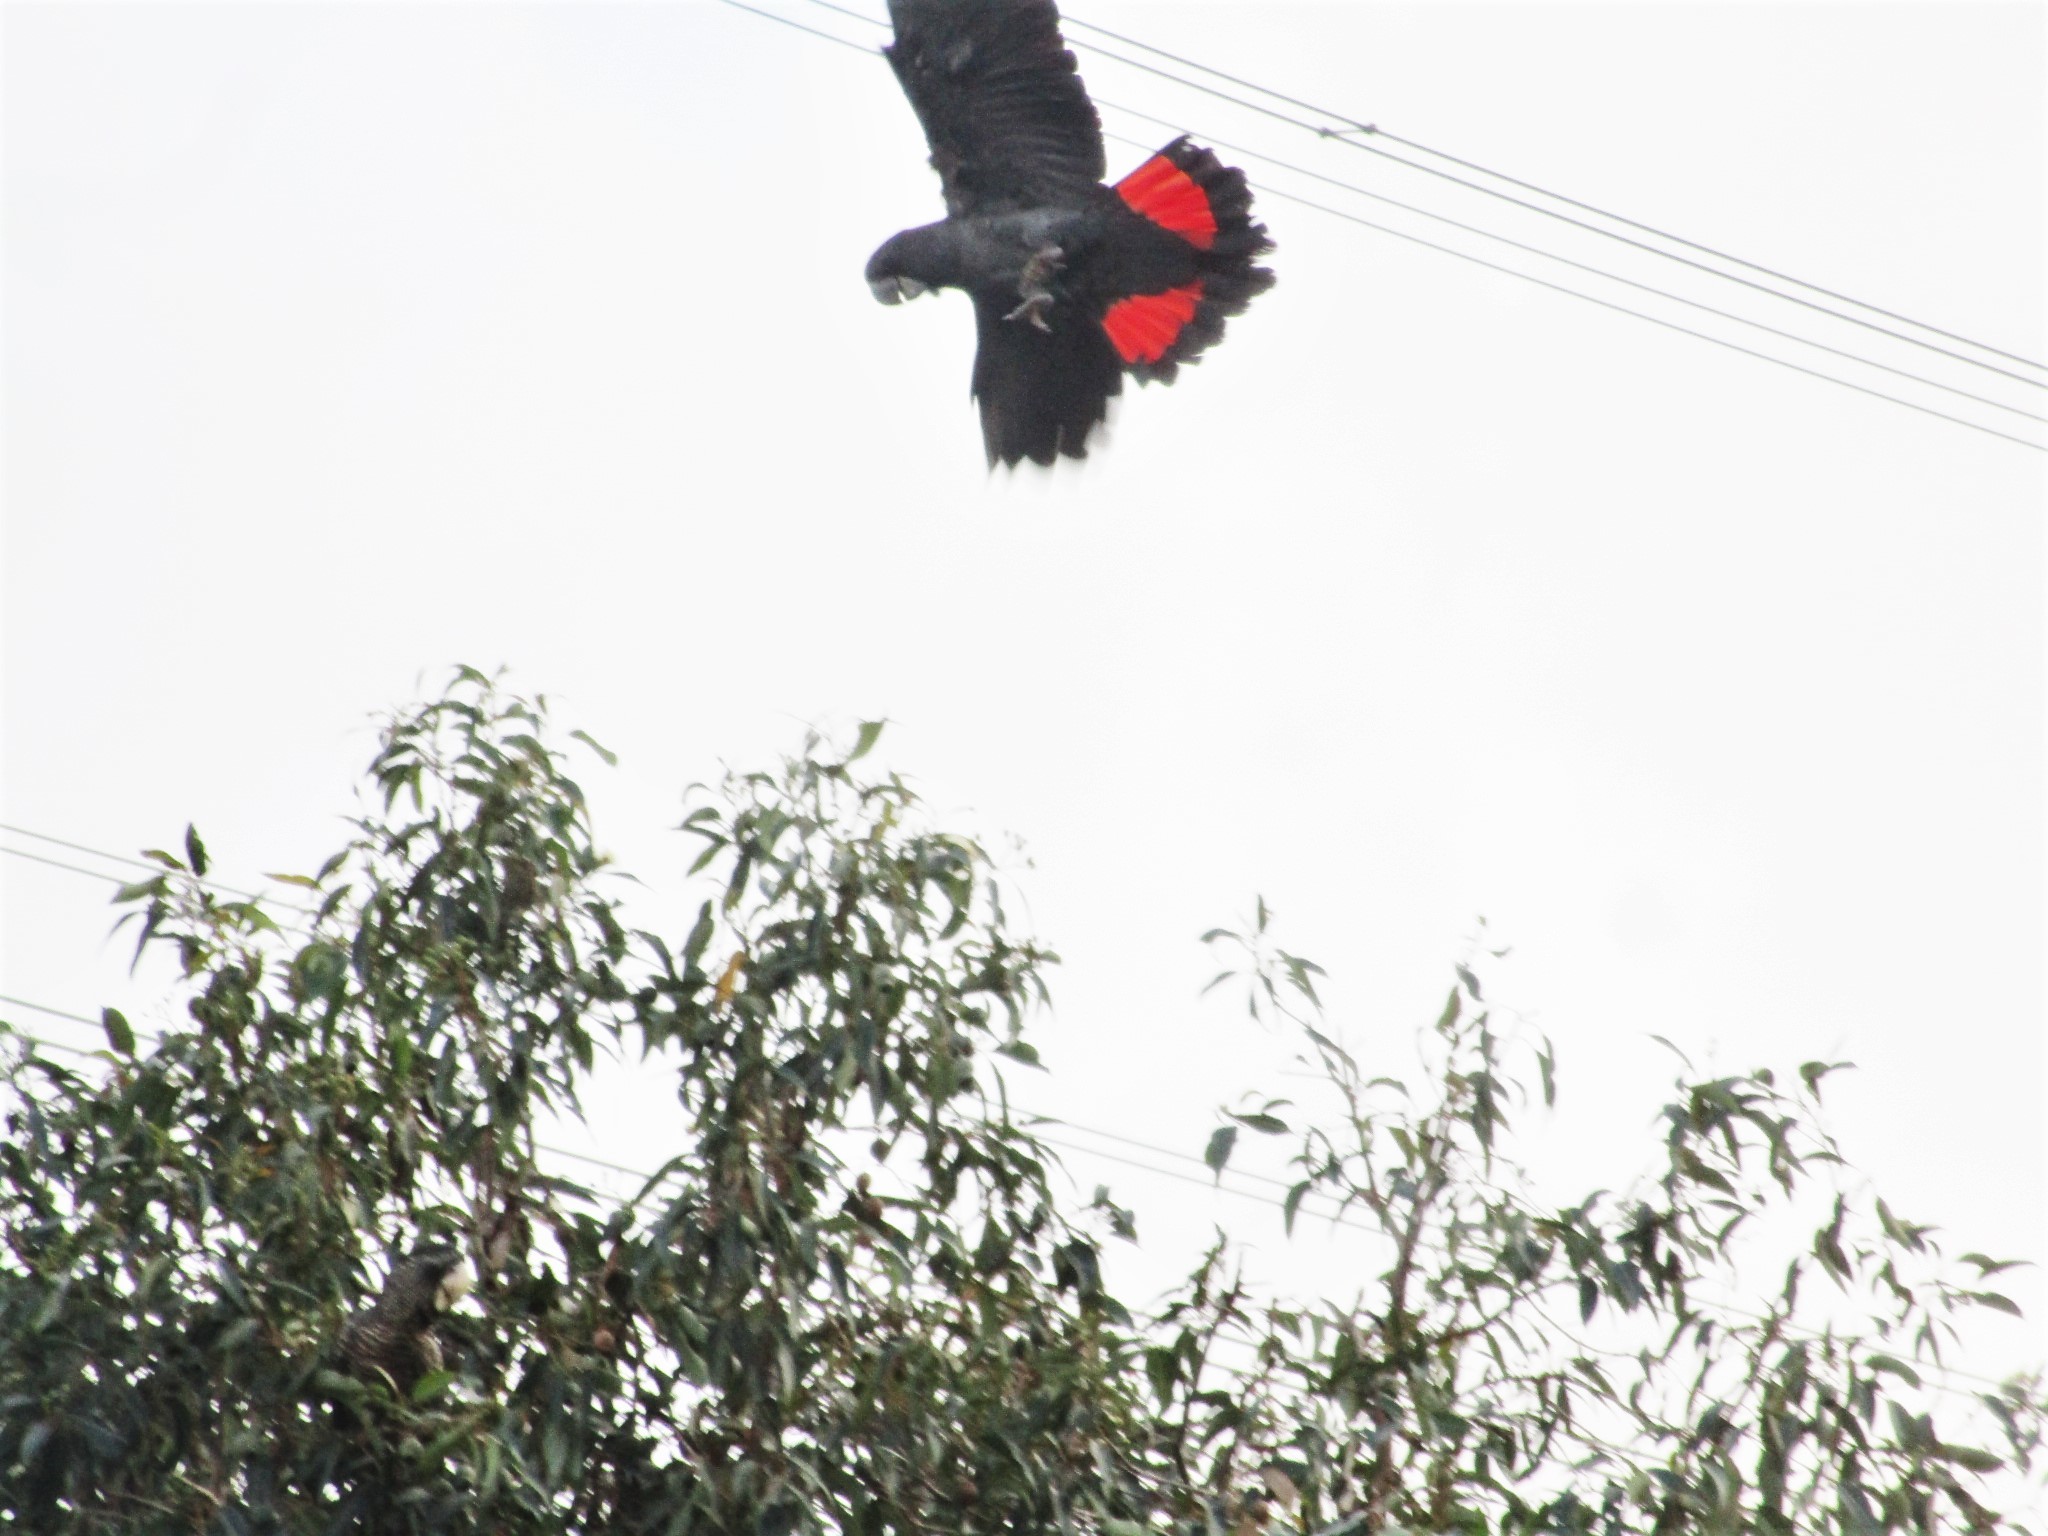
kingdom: Animalia
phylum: Chordata
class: Aves
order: Psittaciformes
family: Psittacidae
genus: Calyptorhynchus
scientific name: Calyptorhynchus banksii
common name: Red-tailed black cockatoo
